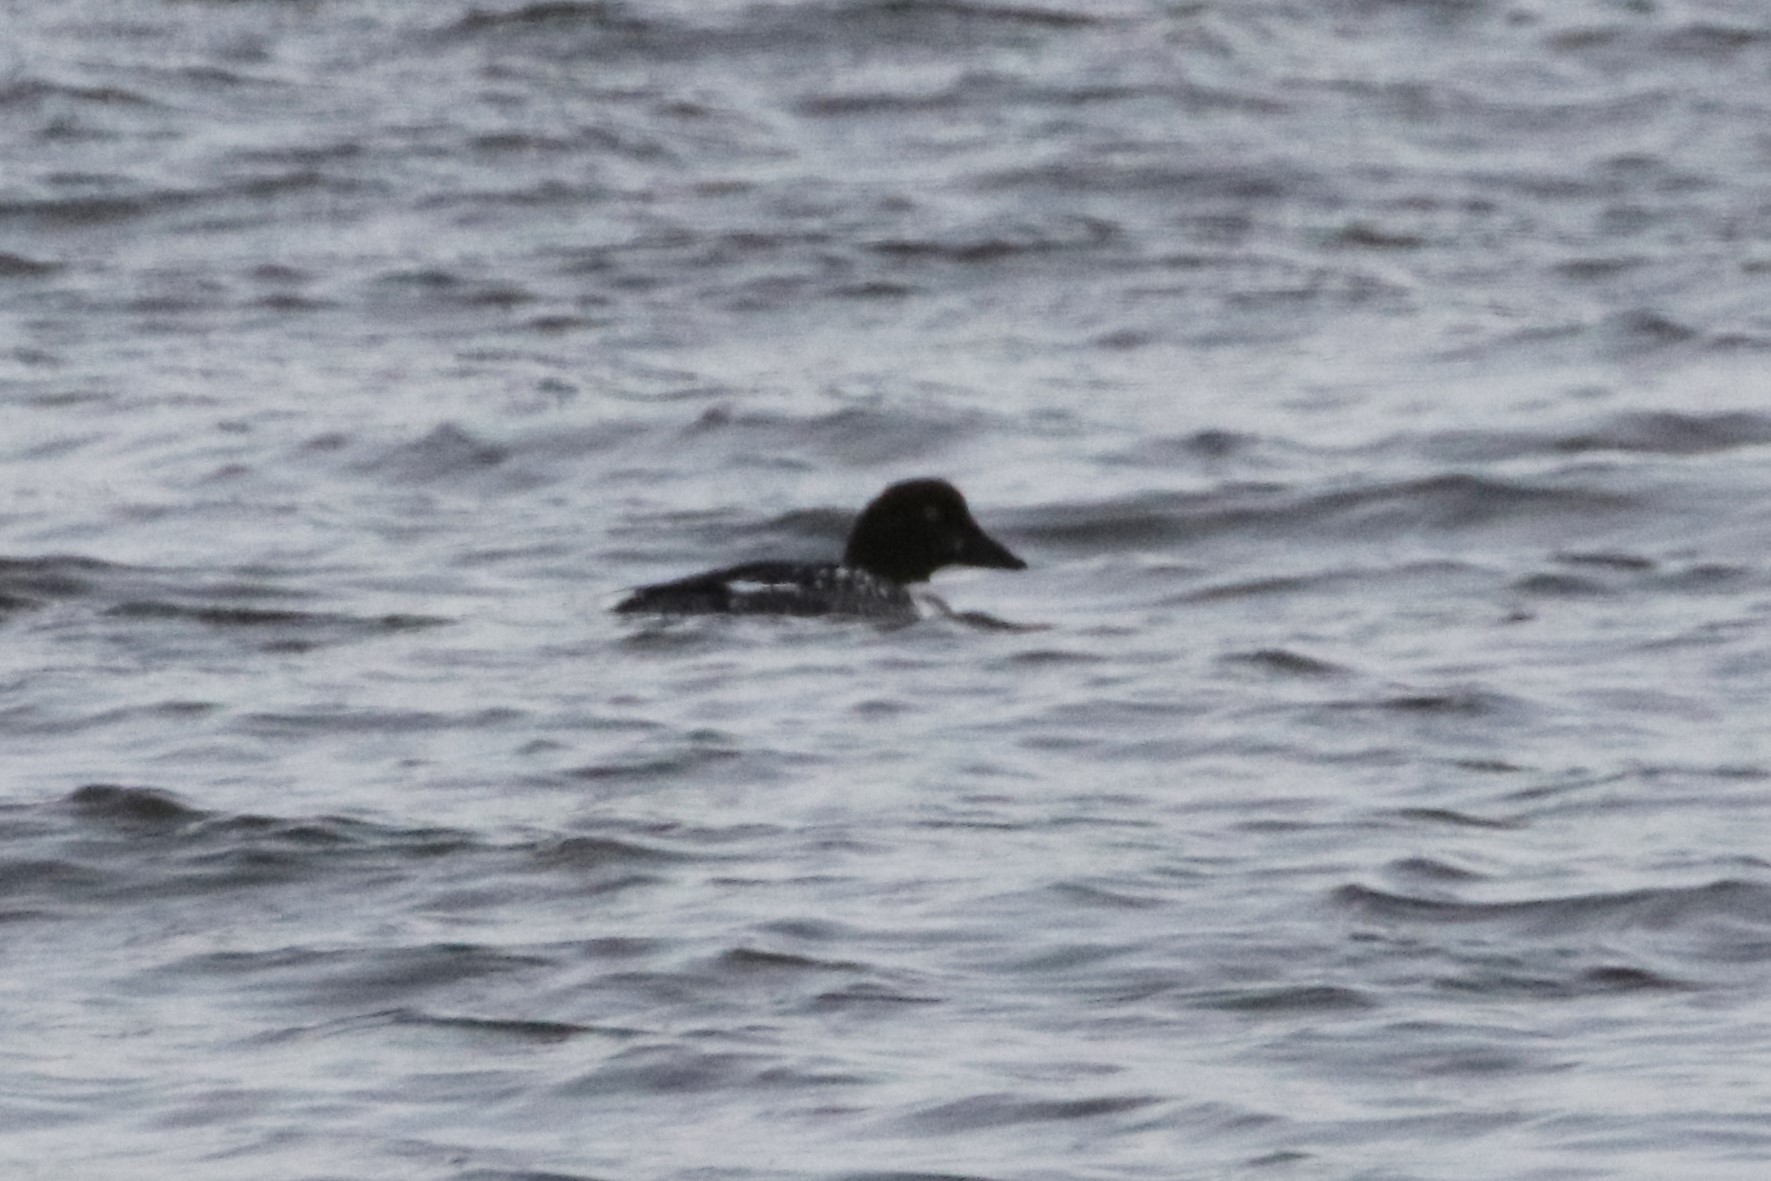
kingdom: Animalia
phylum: Chordata
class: Aves
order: Anseriformes
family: Anatidae
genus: Bucephala
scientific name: Bucephala clangula
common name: Common goldeneye
